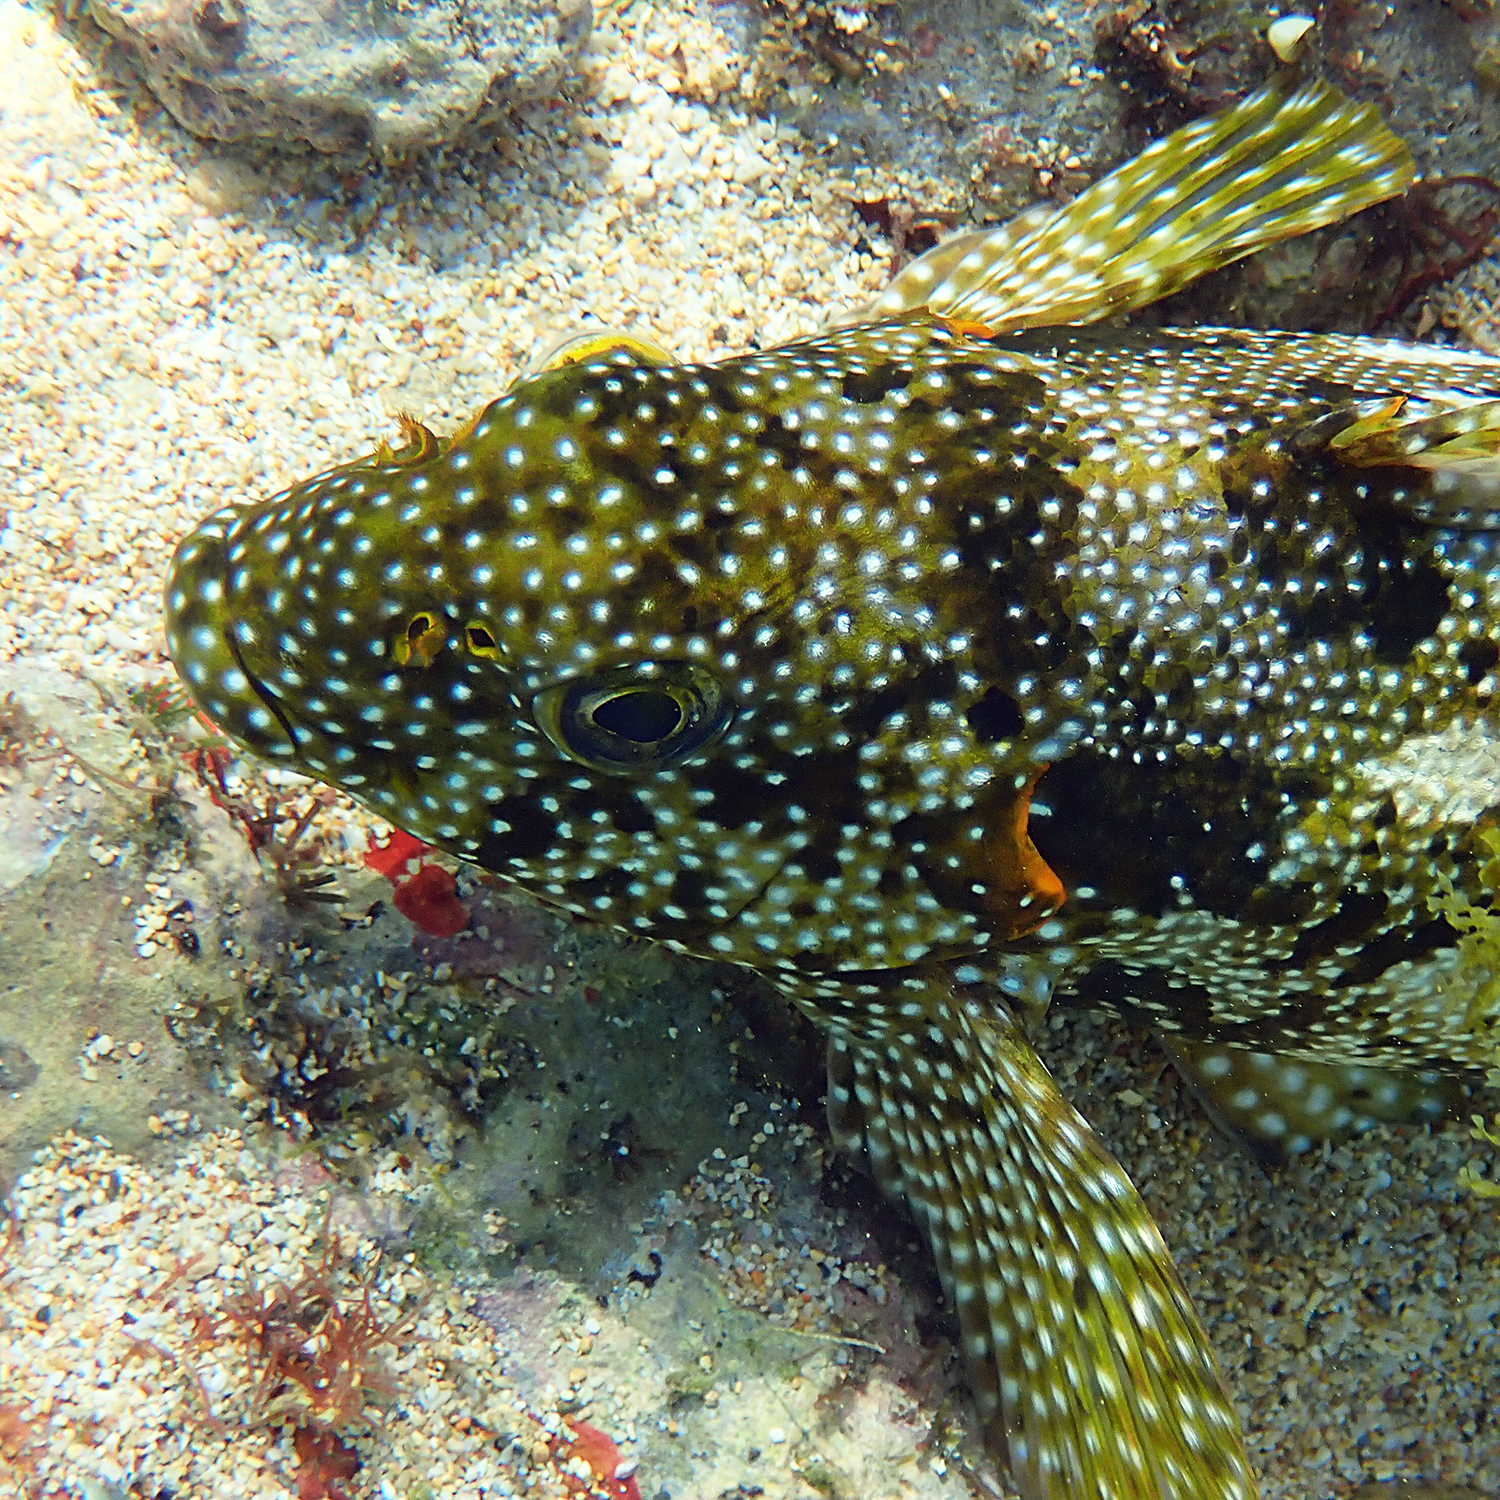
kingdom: Animalia
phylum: Chordata
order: Perciformes
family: Aplodactylidae
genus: Aplodactylus
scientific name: Aplodactylus etheridgii
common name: Notchheaded marblefish
